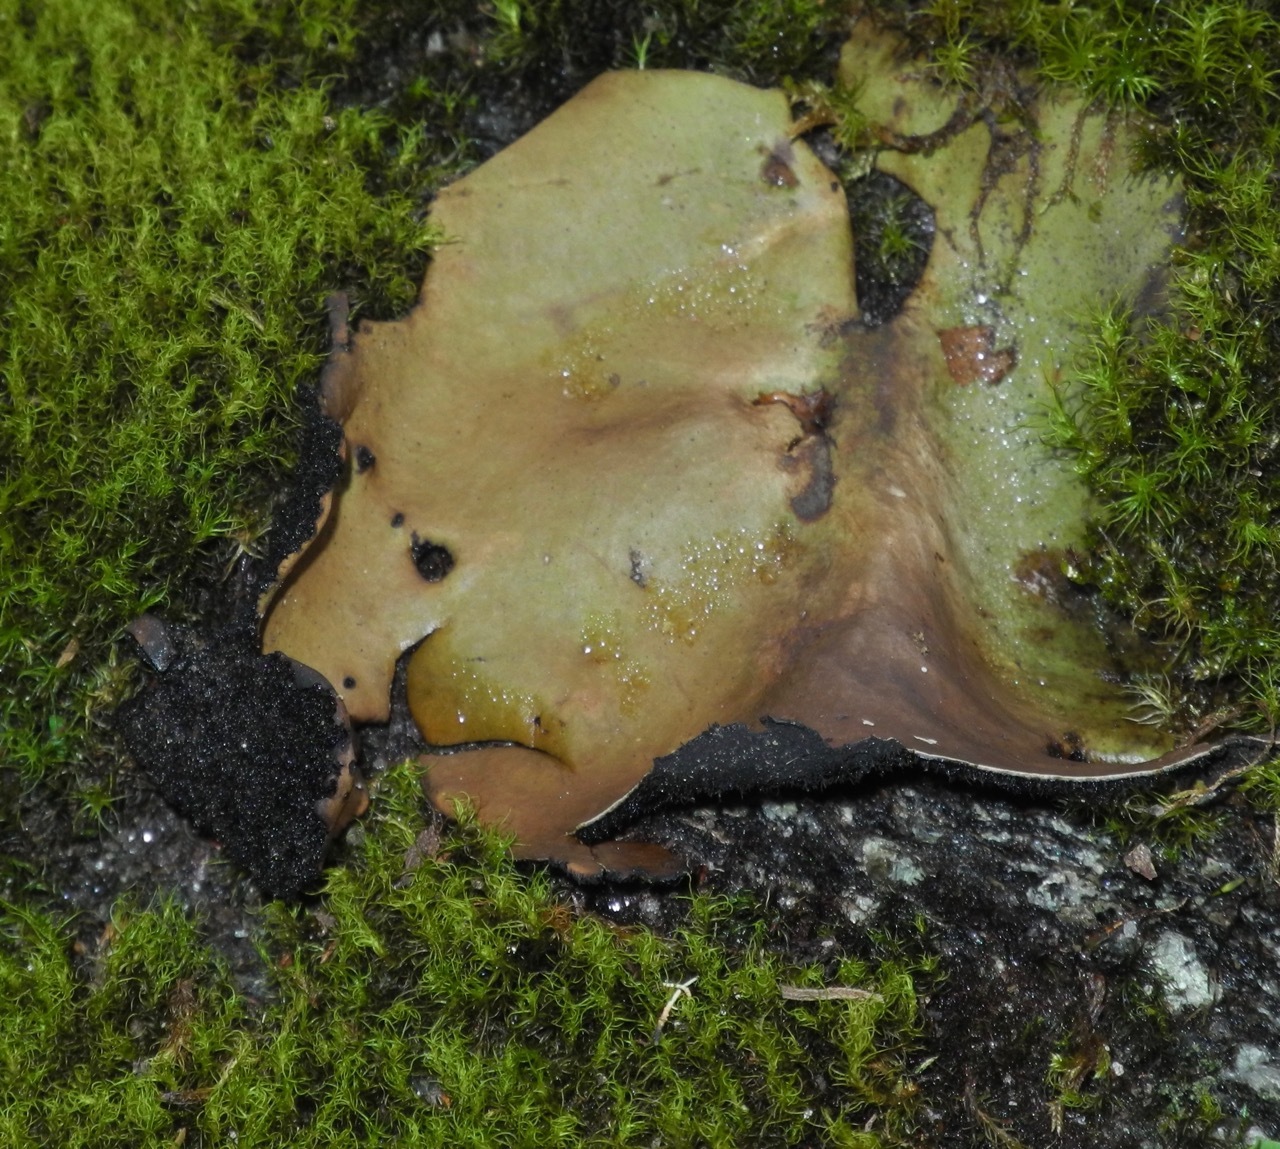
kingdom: Fungi
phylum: Ascomycota
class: Lecanoromycetes
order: Umbilicariales
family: Umbilicariaceae
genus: Umbilicaria
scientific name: Umbilicaria mammulata
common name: Smooth rock tripe
